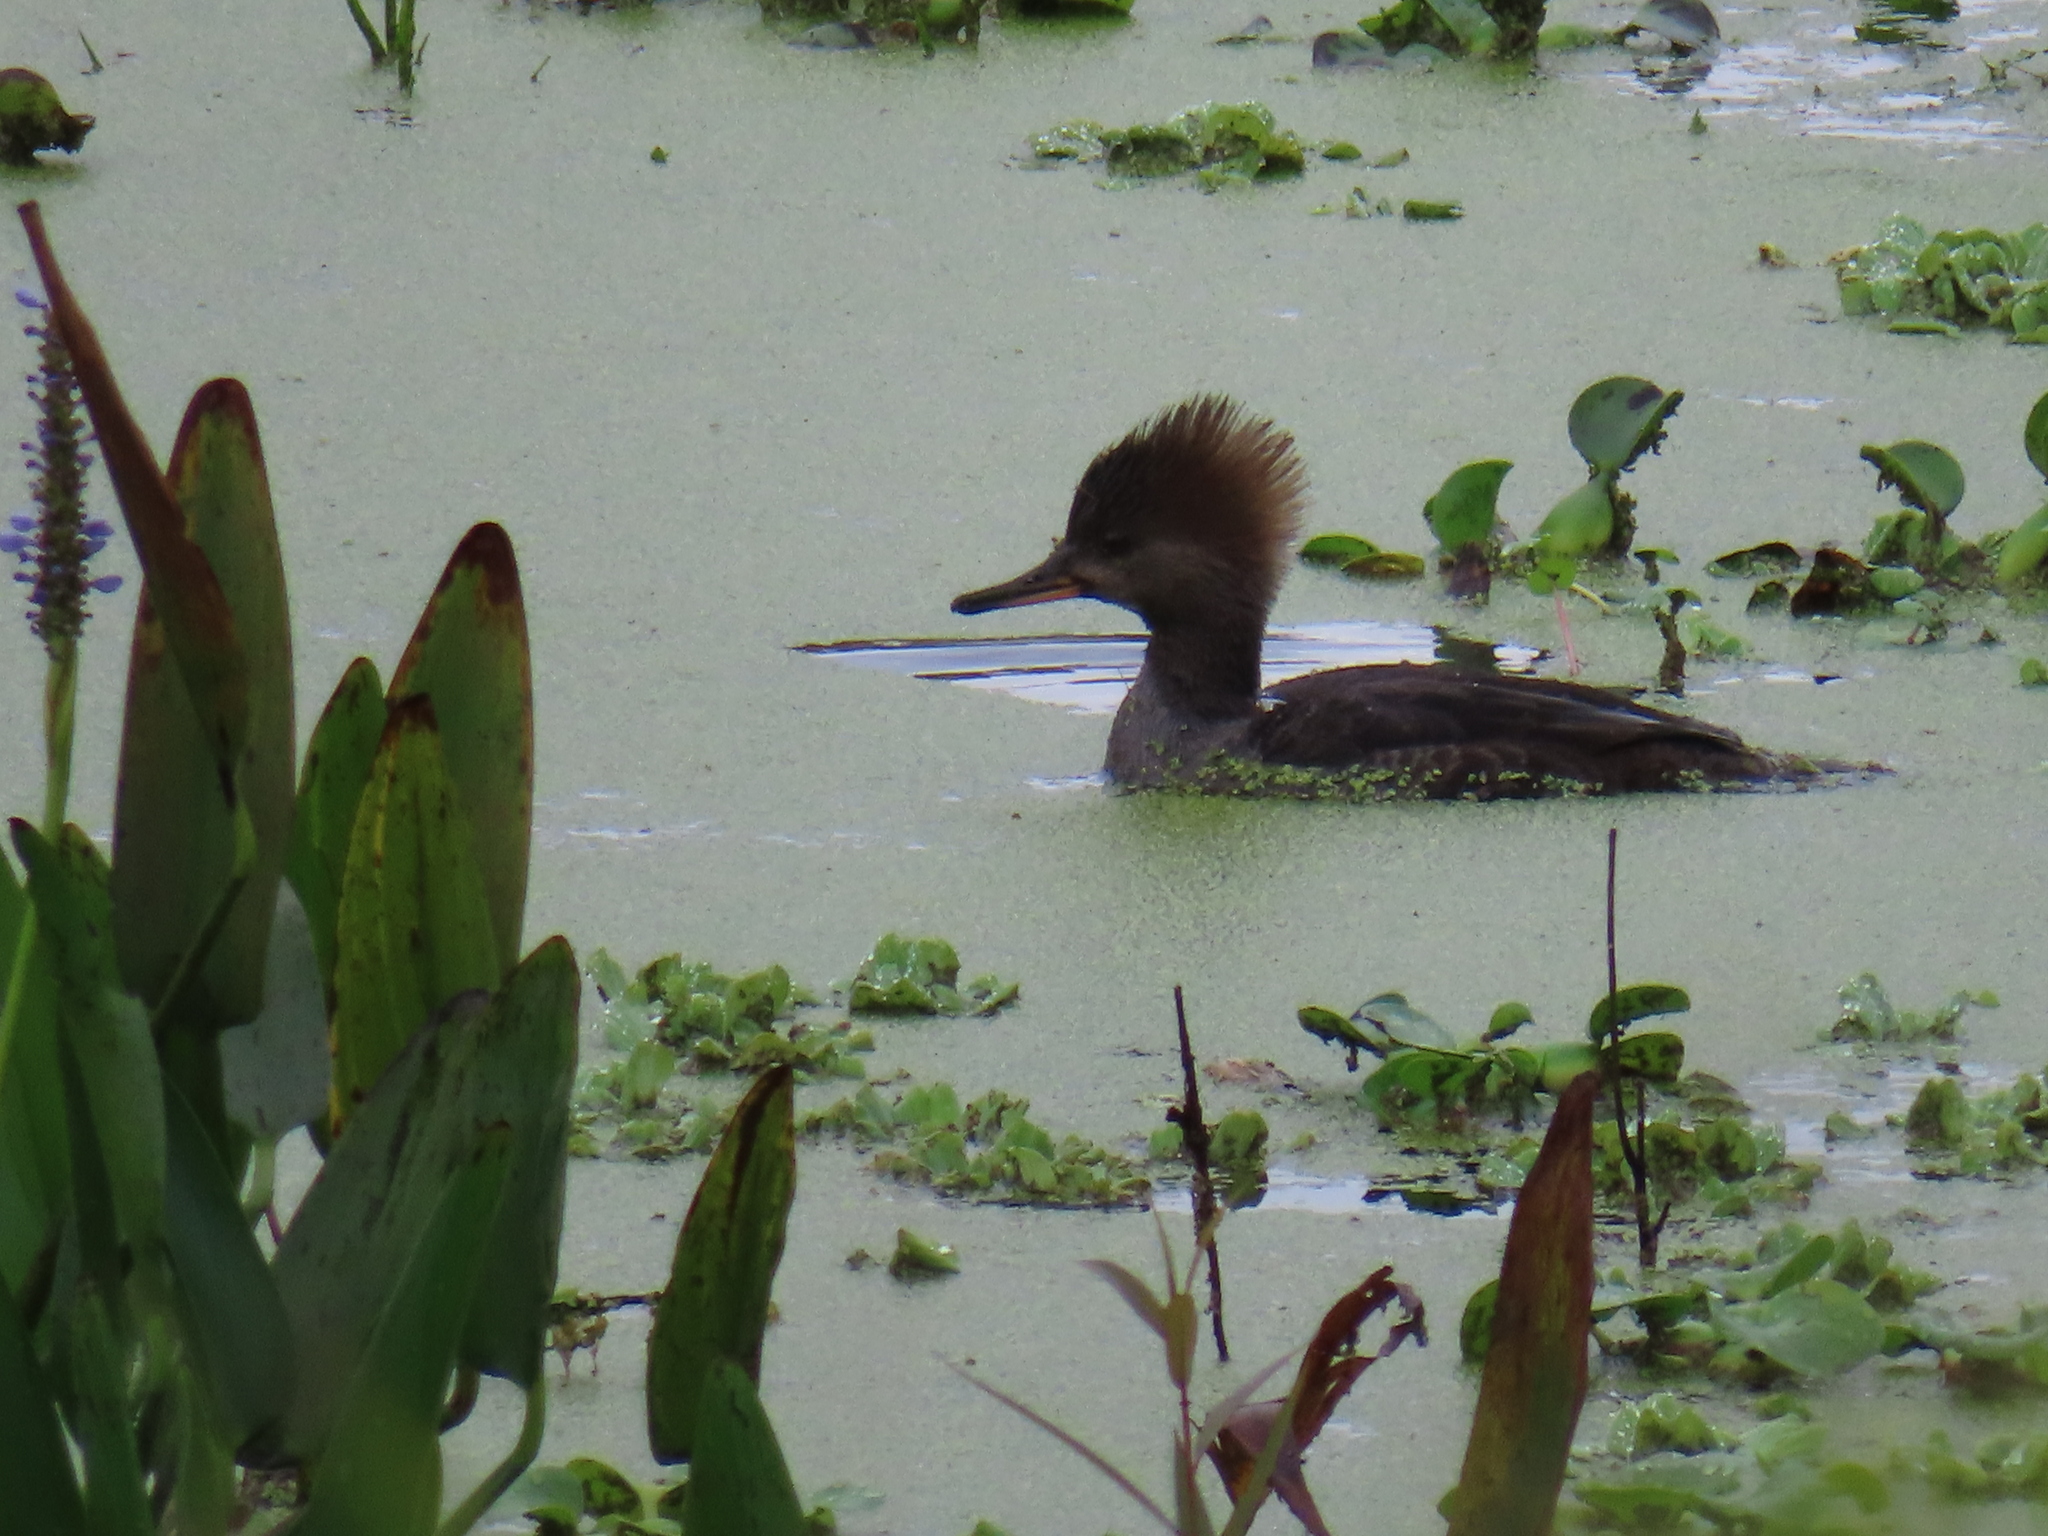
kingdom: Animalia
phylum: Chordata
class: Aves
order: Anseriformes
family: Anatidae
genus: Lophodytes
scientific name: Lophodytes cucullatus
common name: Hooded merganser
